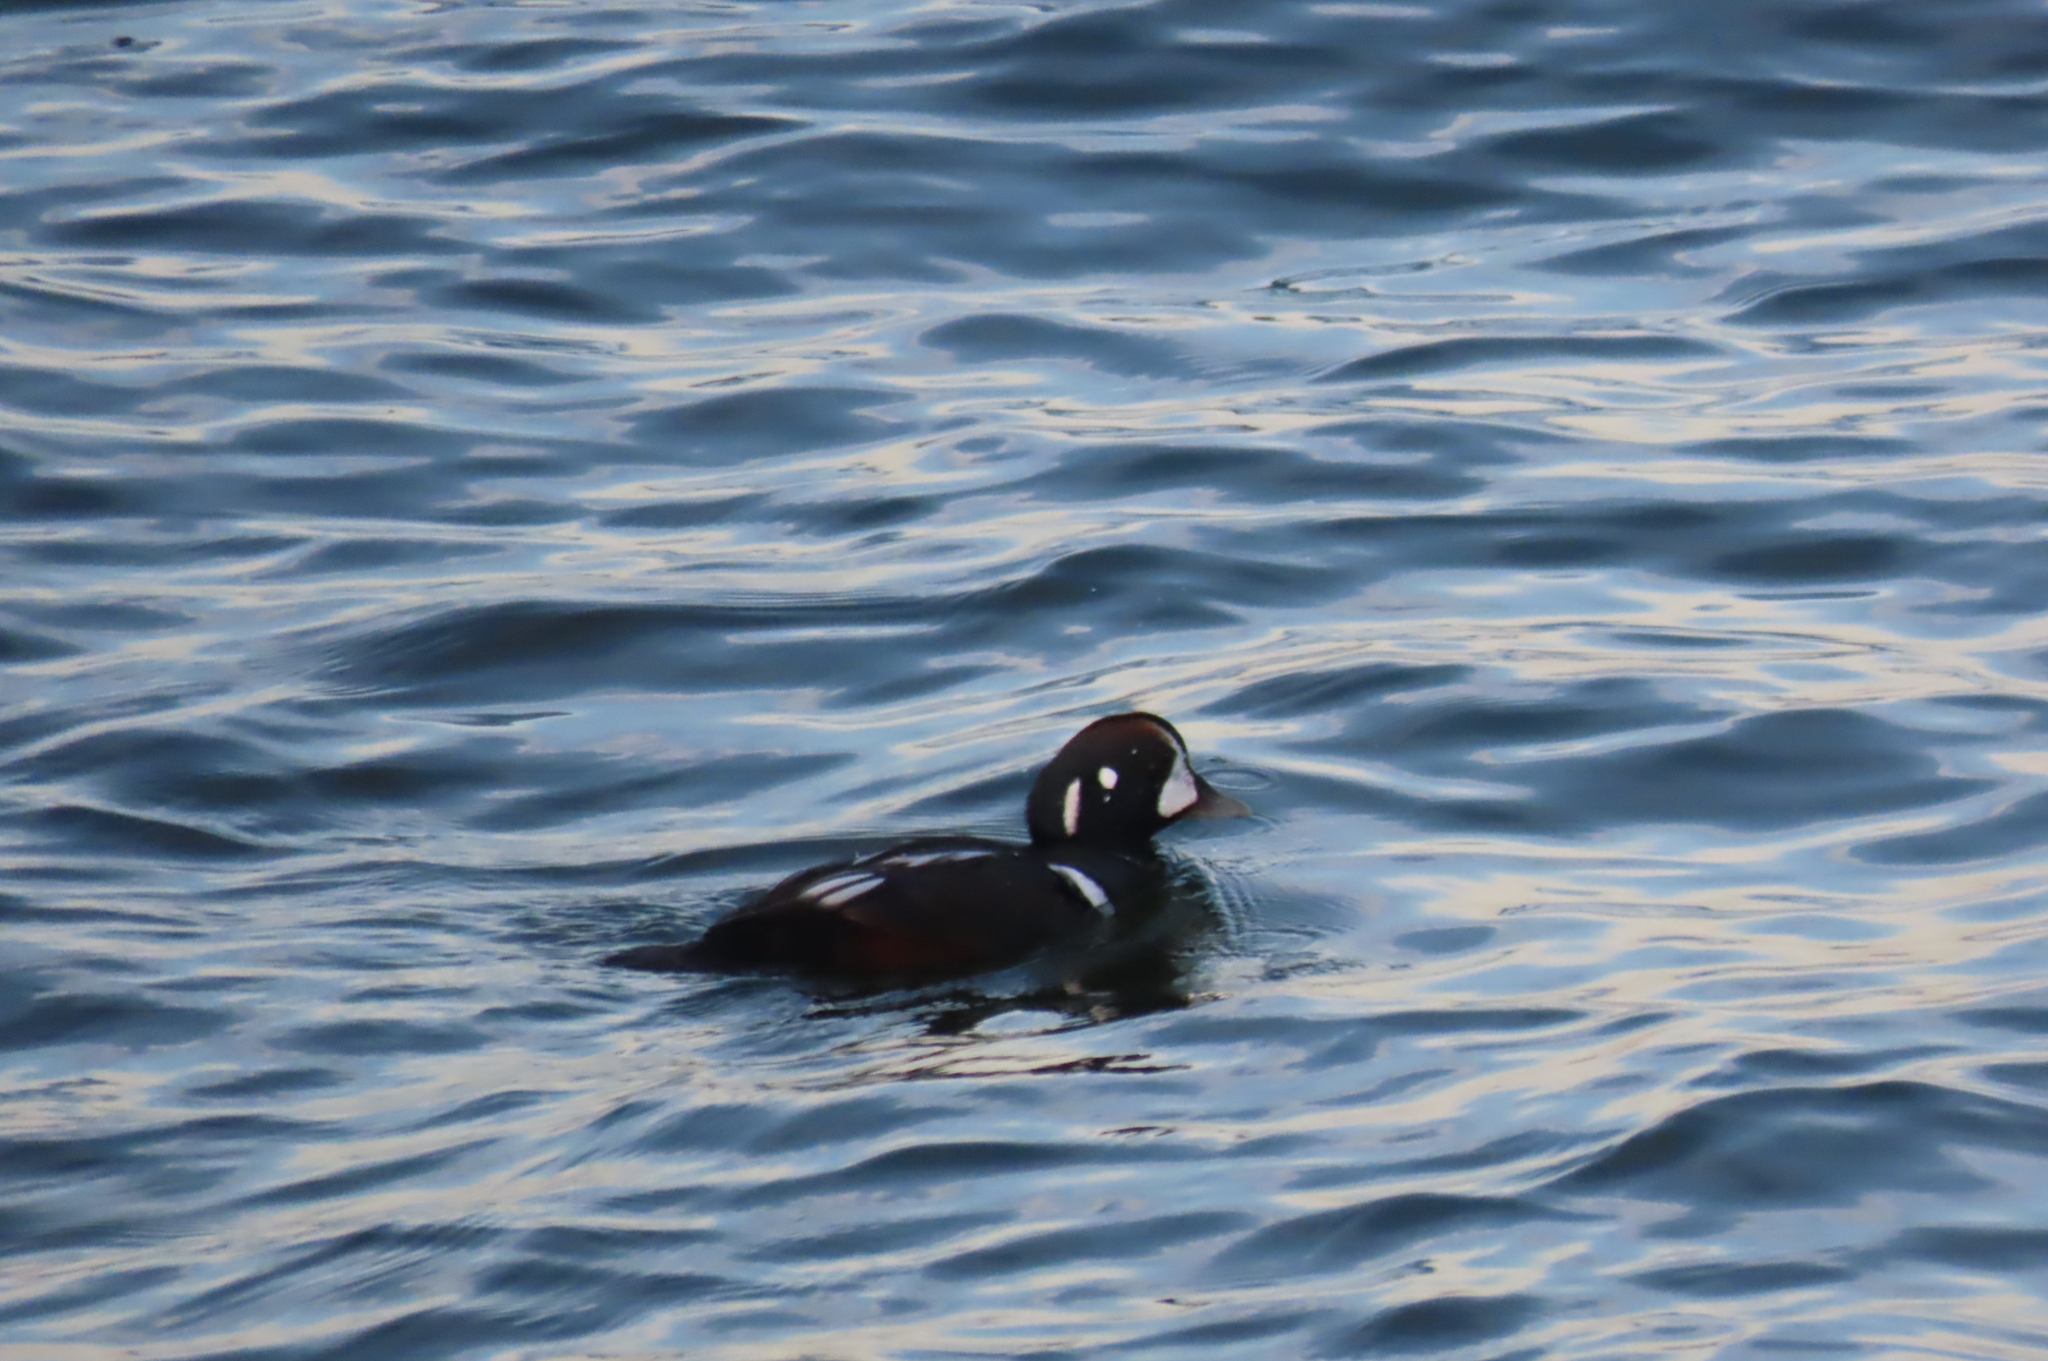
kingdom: Animalia
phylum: Chordata
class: Aves
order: Anseriformes
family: Anatidae
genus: Histrionicus
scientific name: Histrionicus histrionicus
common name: Harlequin duck
